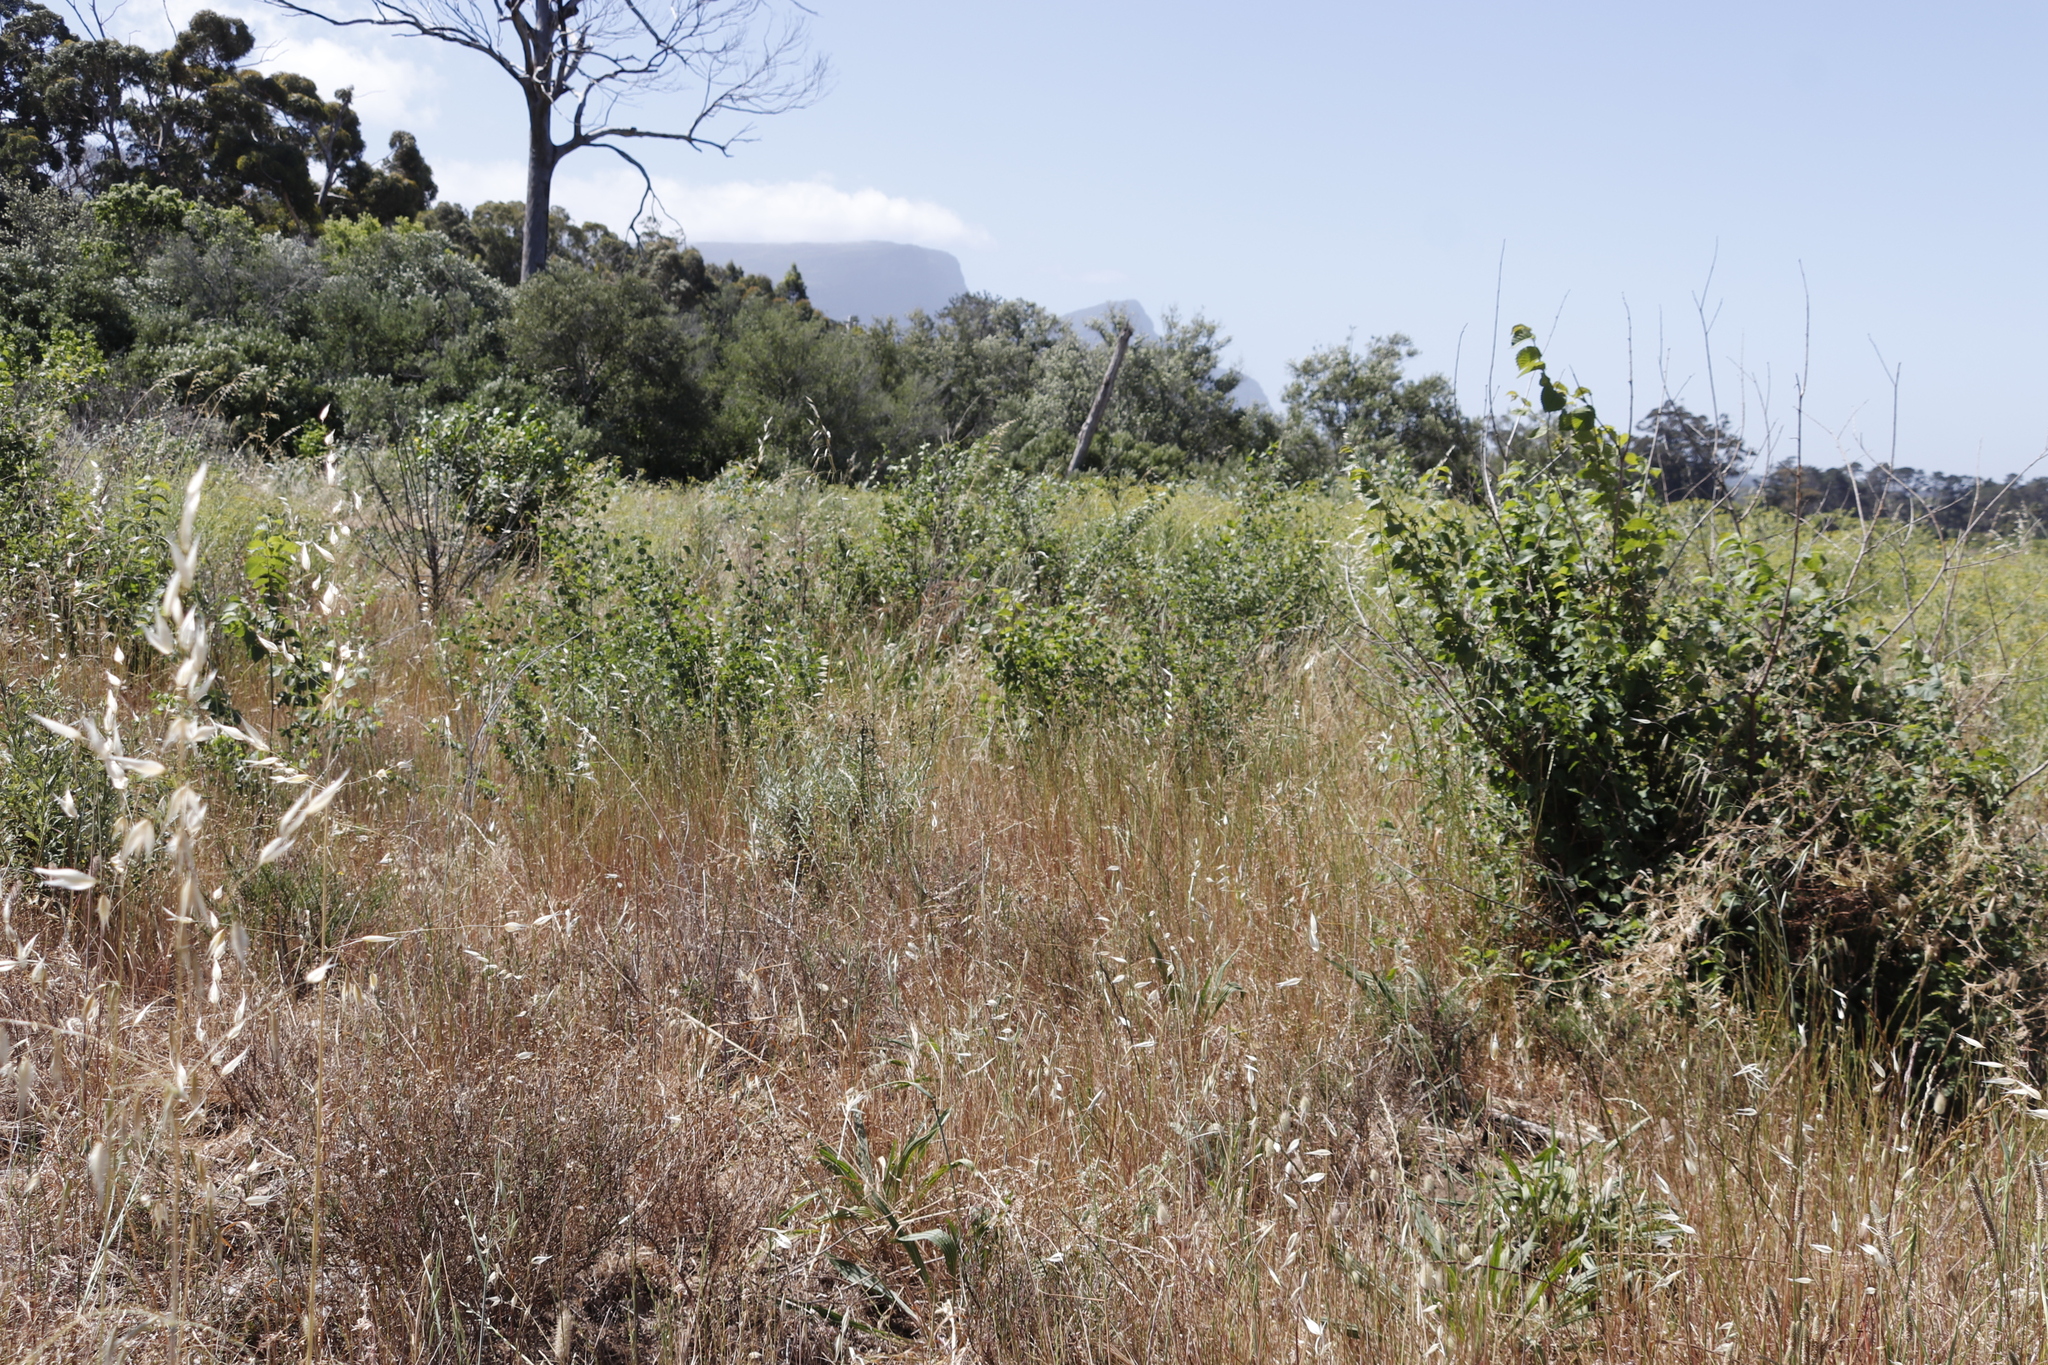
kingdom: Plantae
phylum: Tracheophyta
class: Liliopsida
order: Poales
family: Poaceae
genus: Avena
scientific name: Avena fatua
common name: Wild oat
